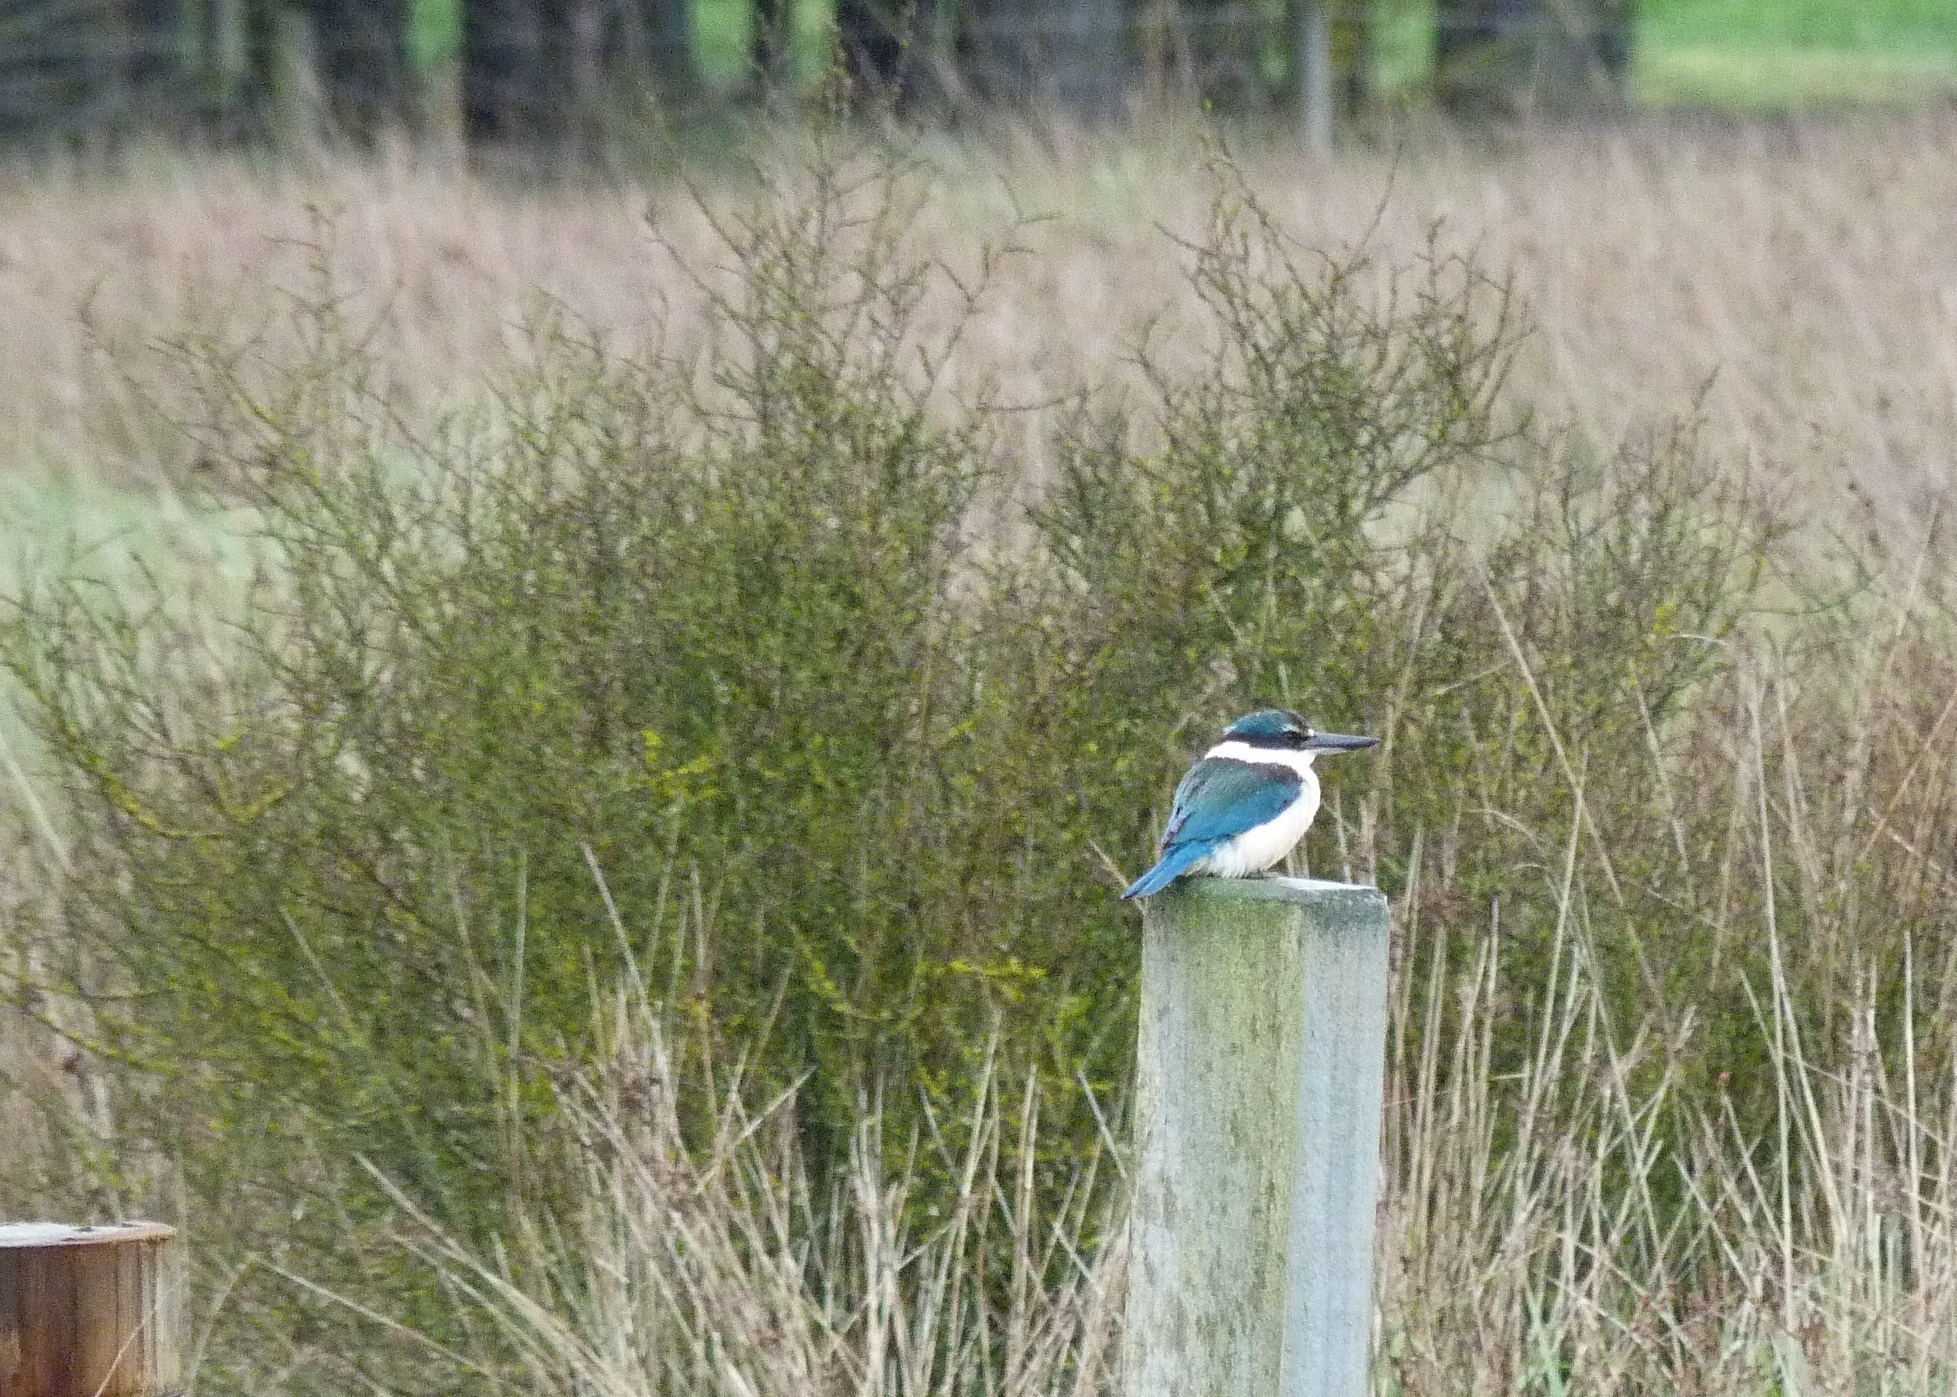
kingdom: Animalia
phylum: Chordata
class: Aves
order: Coraciiformes
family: Alcedinidae
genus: Todiramphus
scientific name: Todiramphus sanctus
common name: Sacred kingfisher
